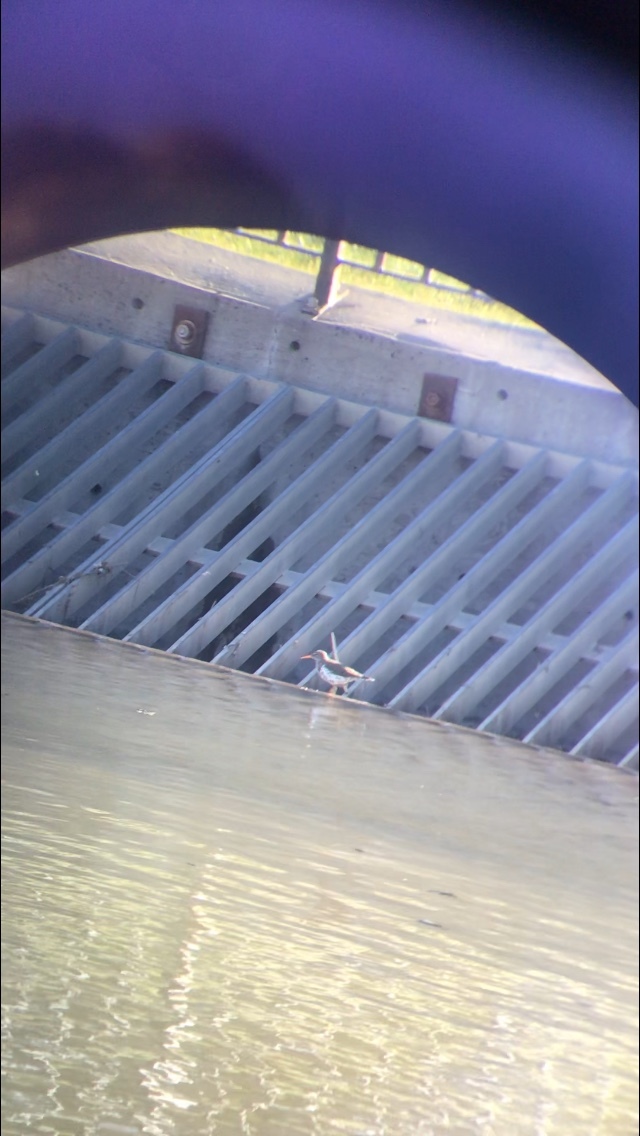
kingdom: Animalia
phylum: Chordata
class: Aves
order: Charadriiformes
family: Scolopacidae
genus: Actitis
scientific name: Actitis macularius
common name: Spotted sandpiper
